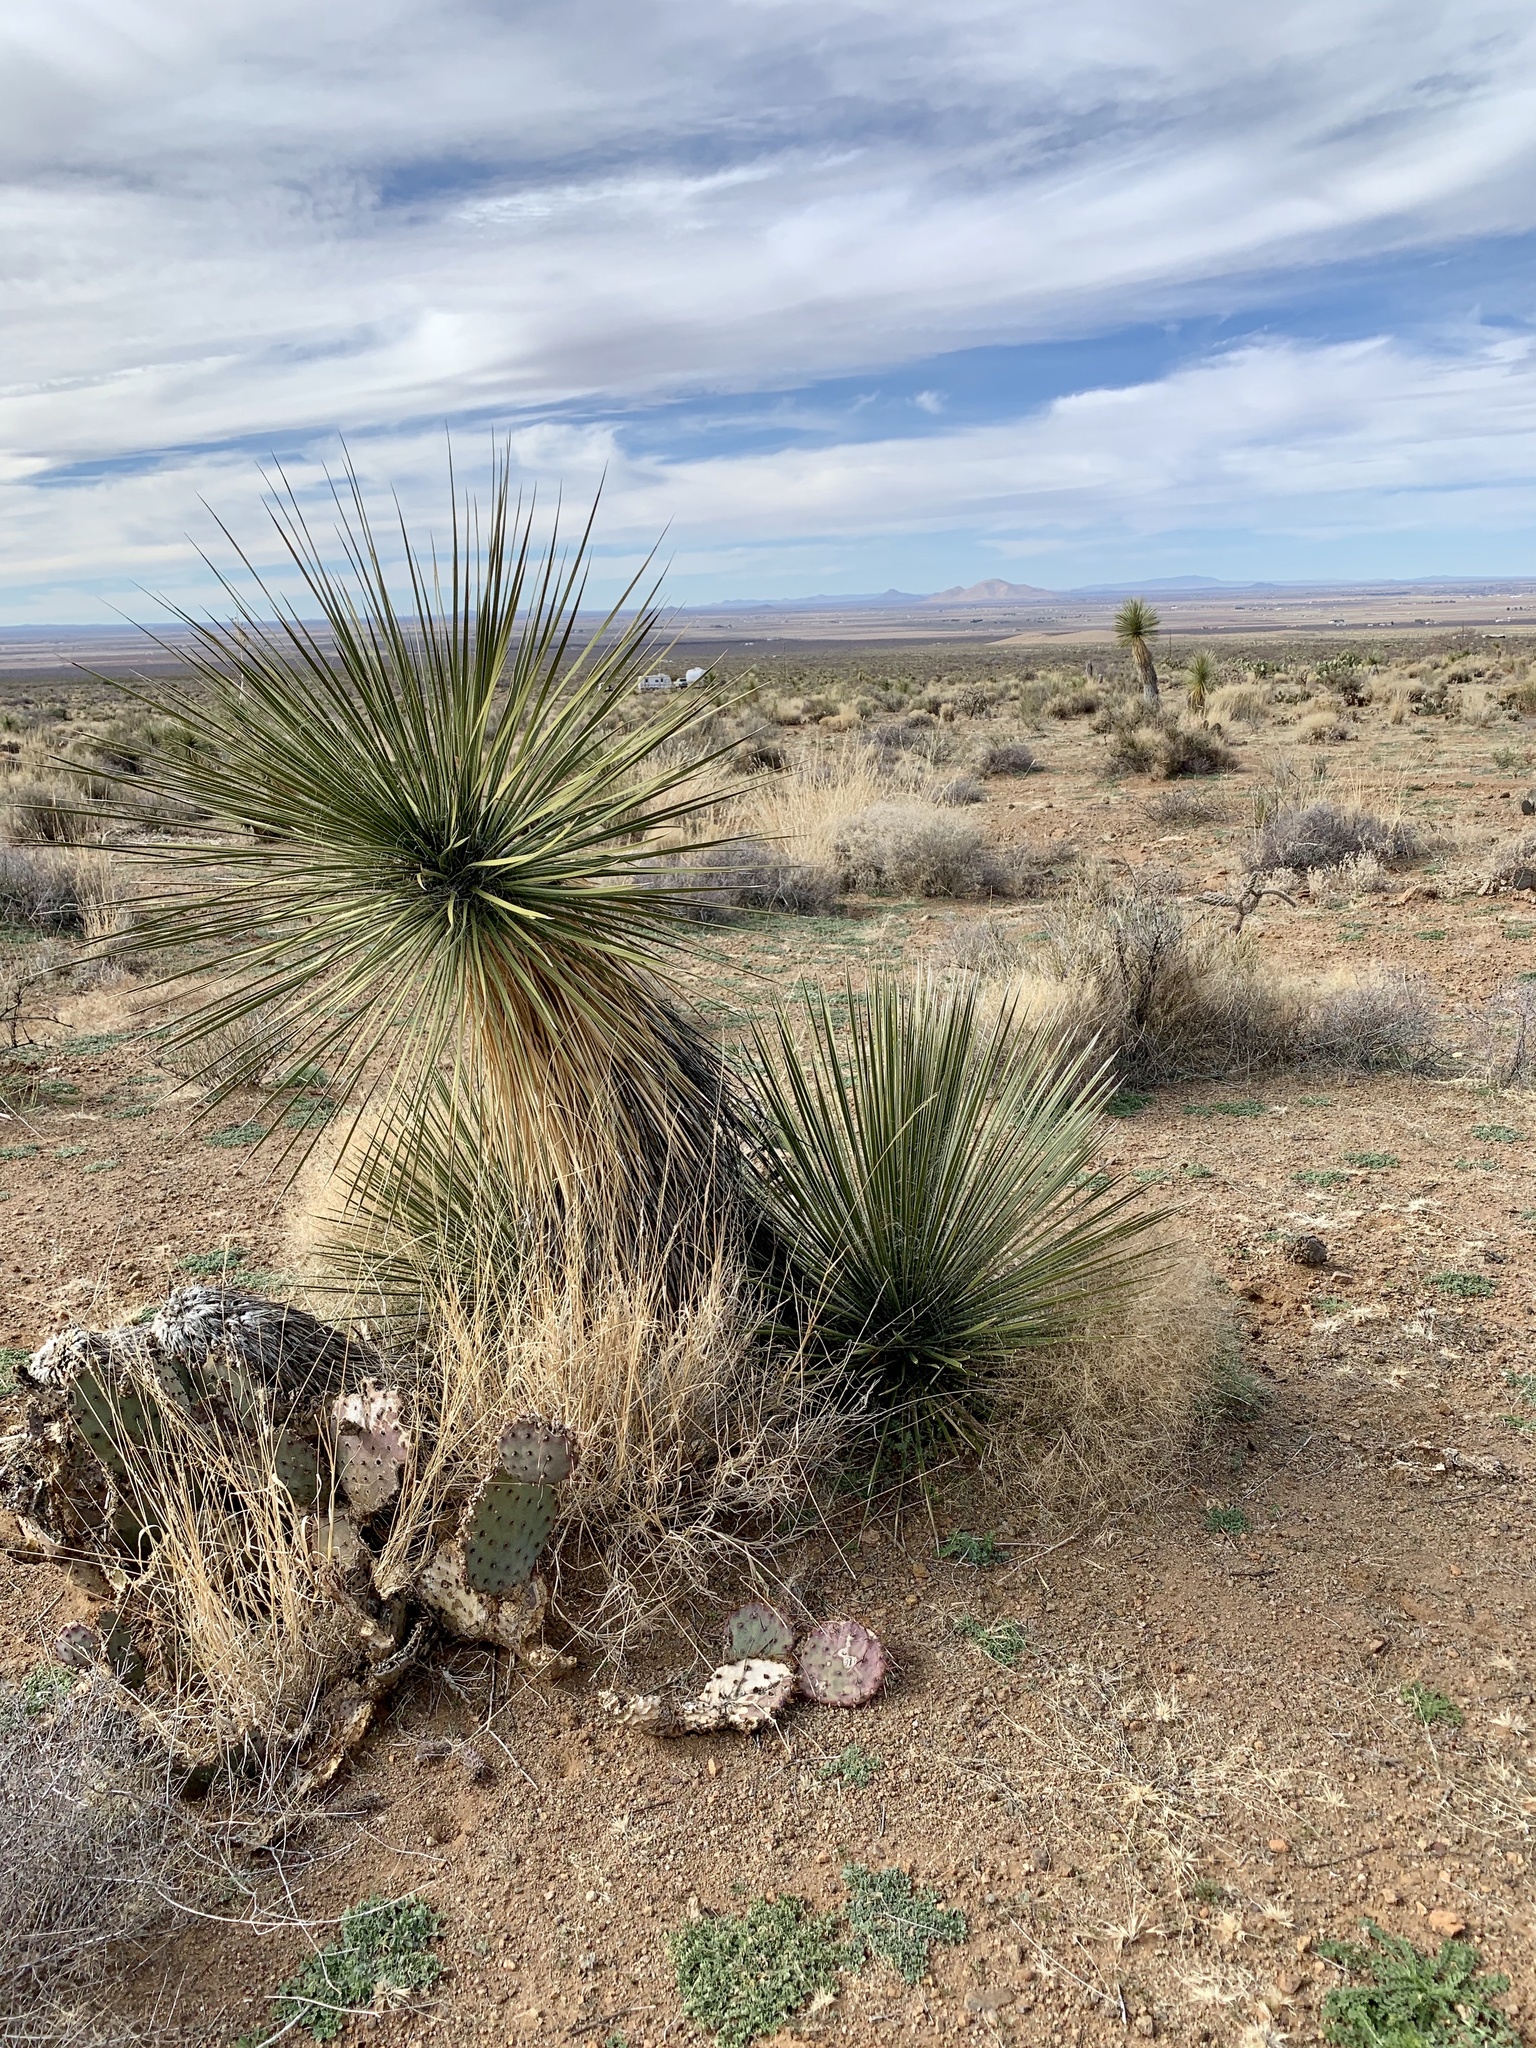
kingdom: Plantae
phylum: Tracheophyta
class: Liliopsida
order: Asparagales
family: Asparagaceae
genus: Yucca
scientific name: Yucca elata
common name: Palmella
